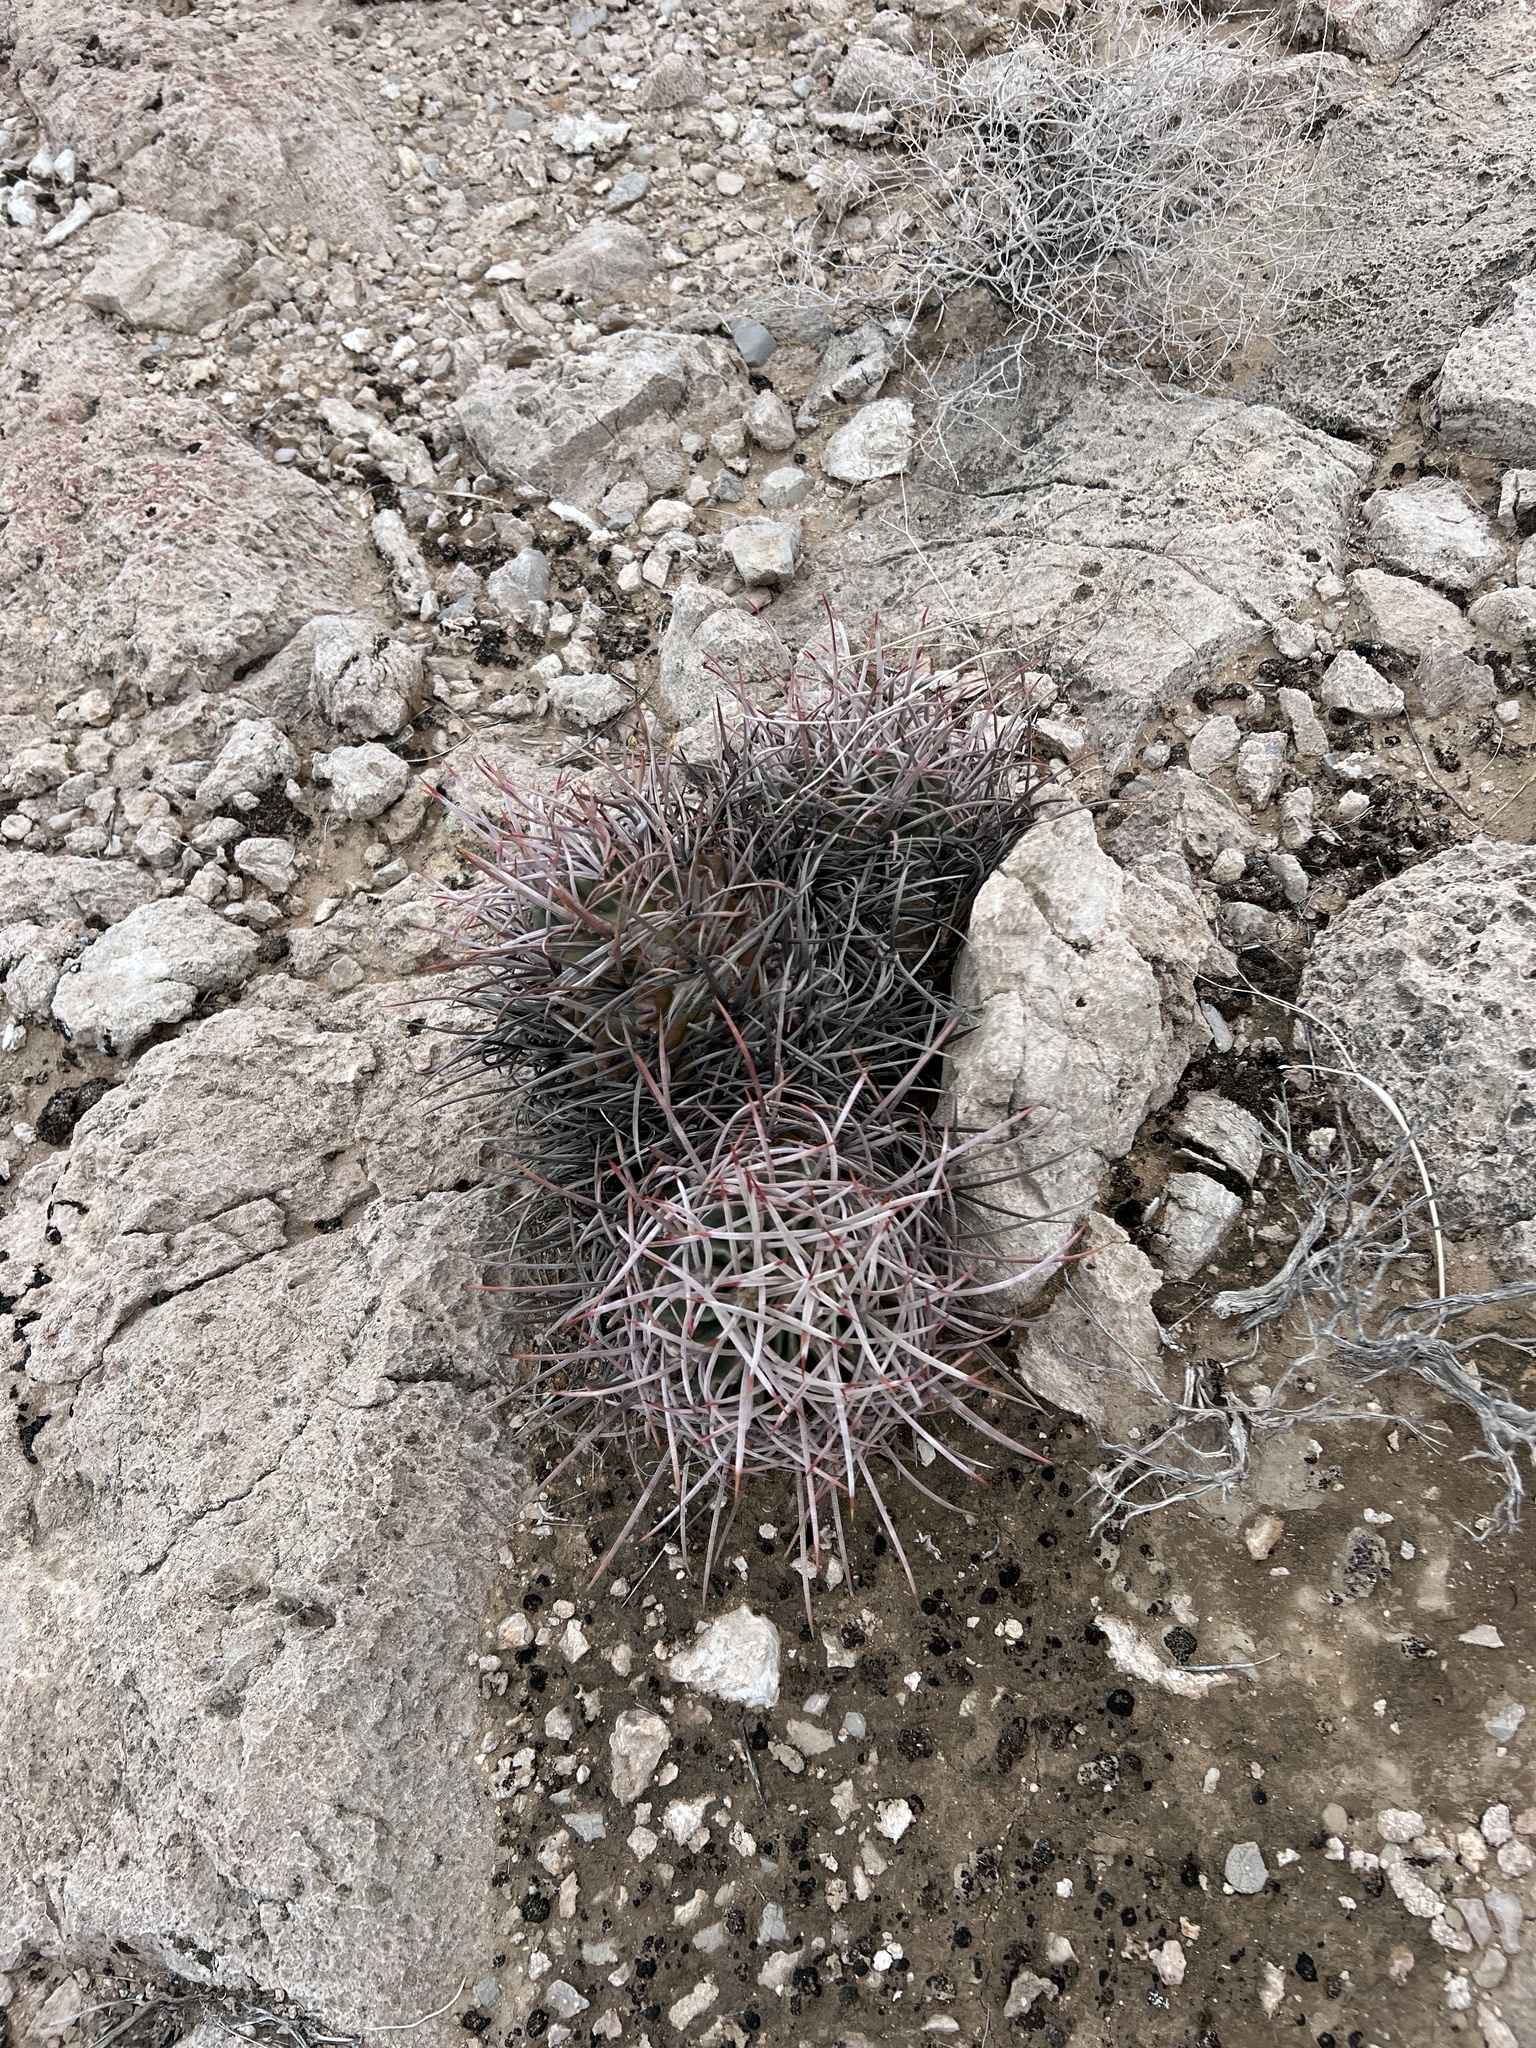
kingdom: Plantae
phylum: Tracheophyta
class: Magnoliopsida
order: Caryophyllales
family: Cactaceae
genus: Echinocactus
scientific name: Echinocactus polycephalus
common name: Cottontop cactus
